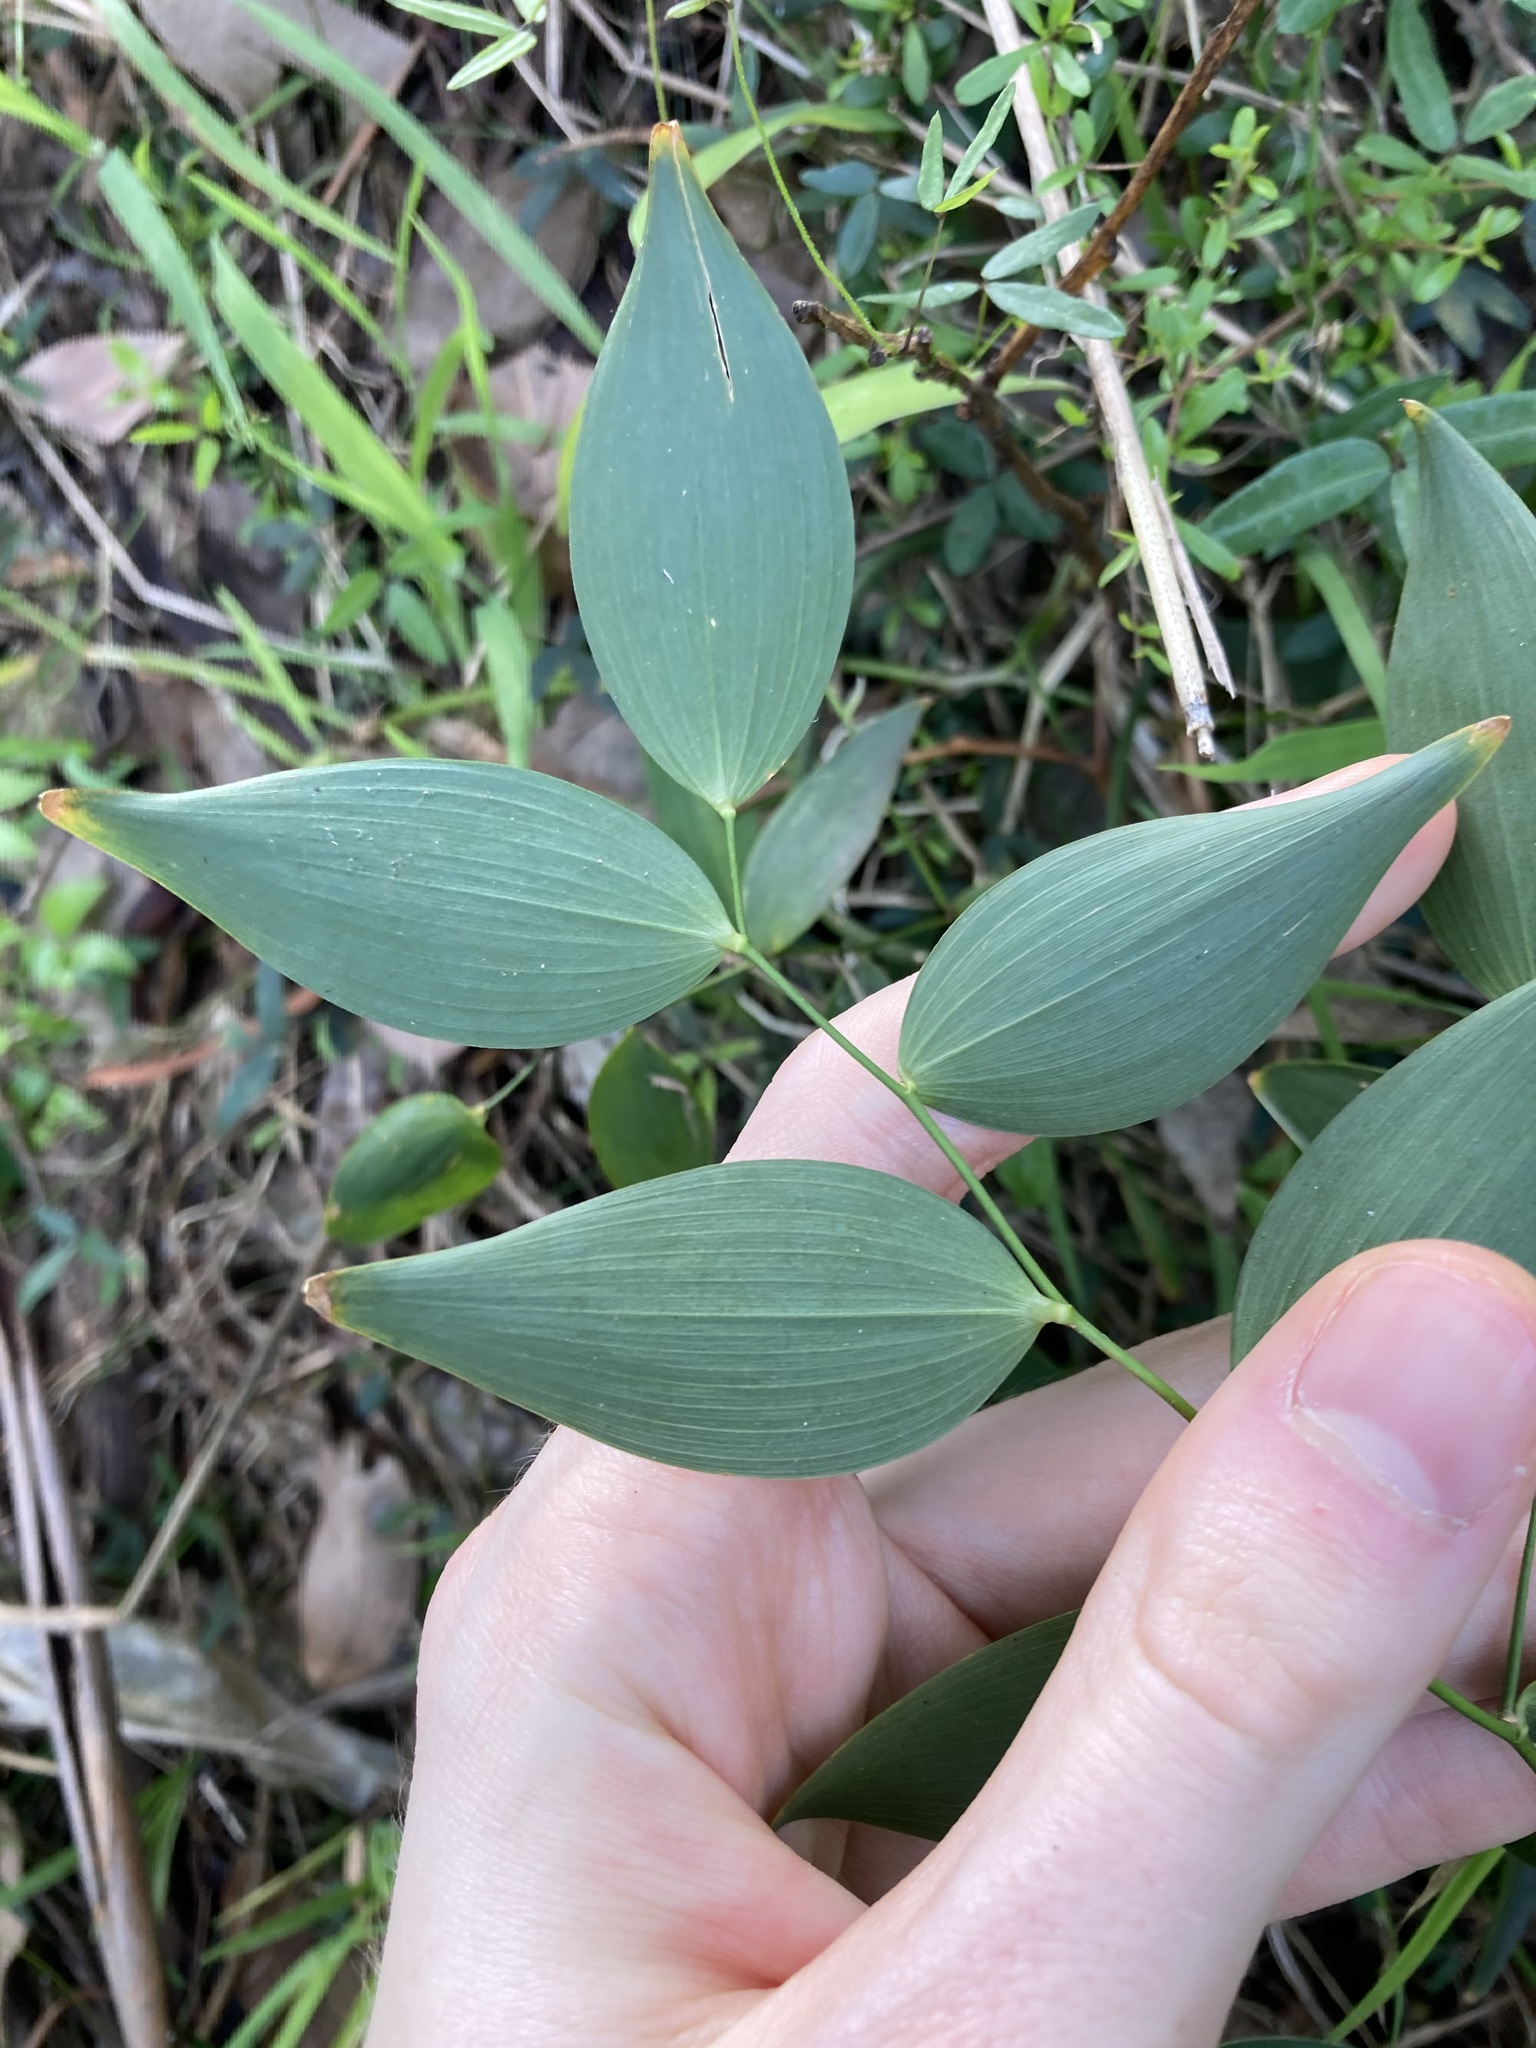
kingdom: Plantae
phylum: Tracheophyta
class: Liliopsida
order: Asparagales
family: Asparagaceae
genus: Eustrephus
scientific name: Eustrephus latifolius
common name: Orangevine
